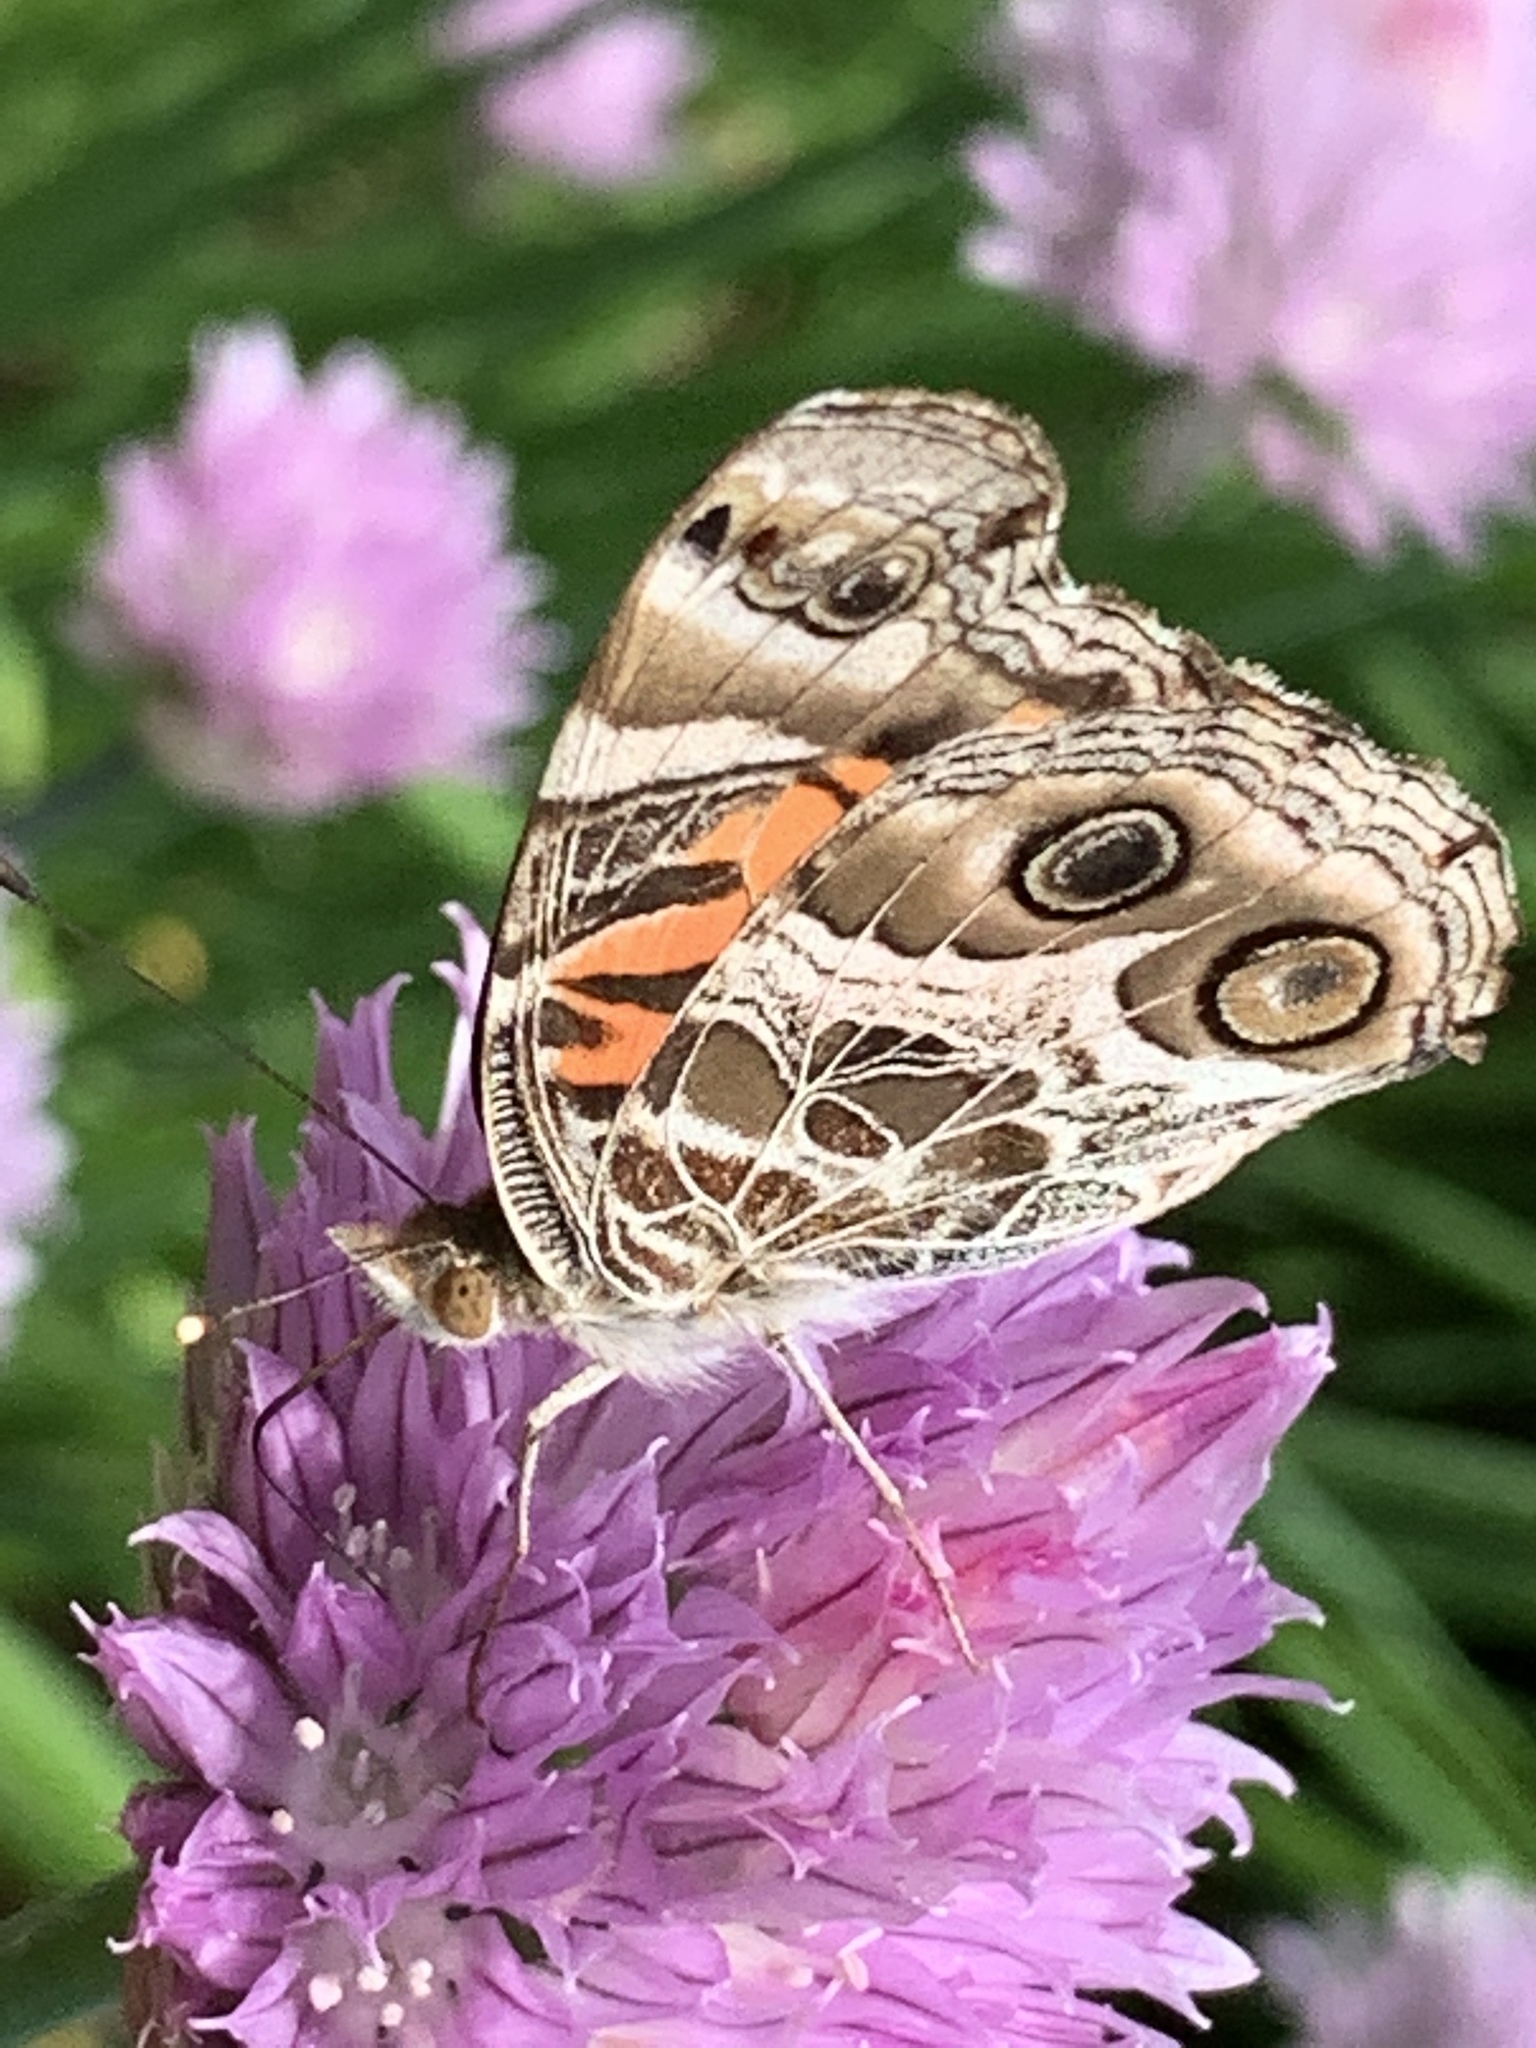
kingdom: Animalia
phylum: Arthropoda
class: Insecta
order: Lepidoptera
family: Nymphalidae
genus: Vanessa
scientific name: Vanessa virginiensis
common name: American lady
